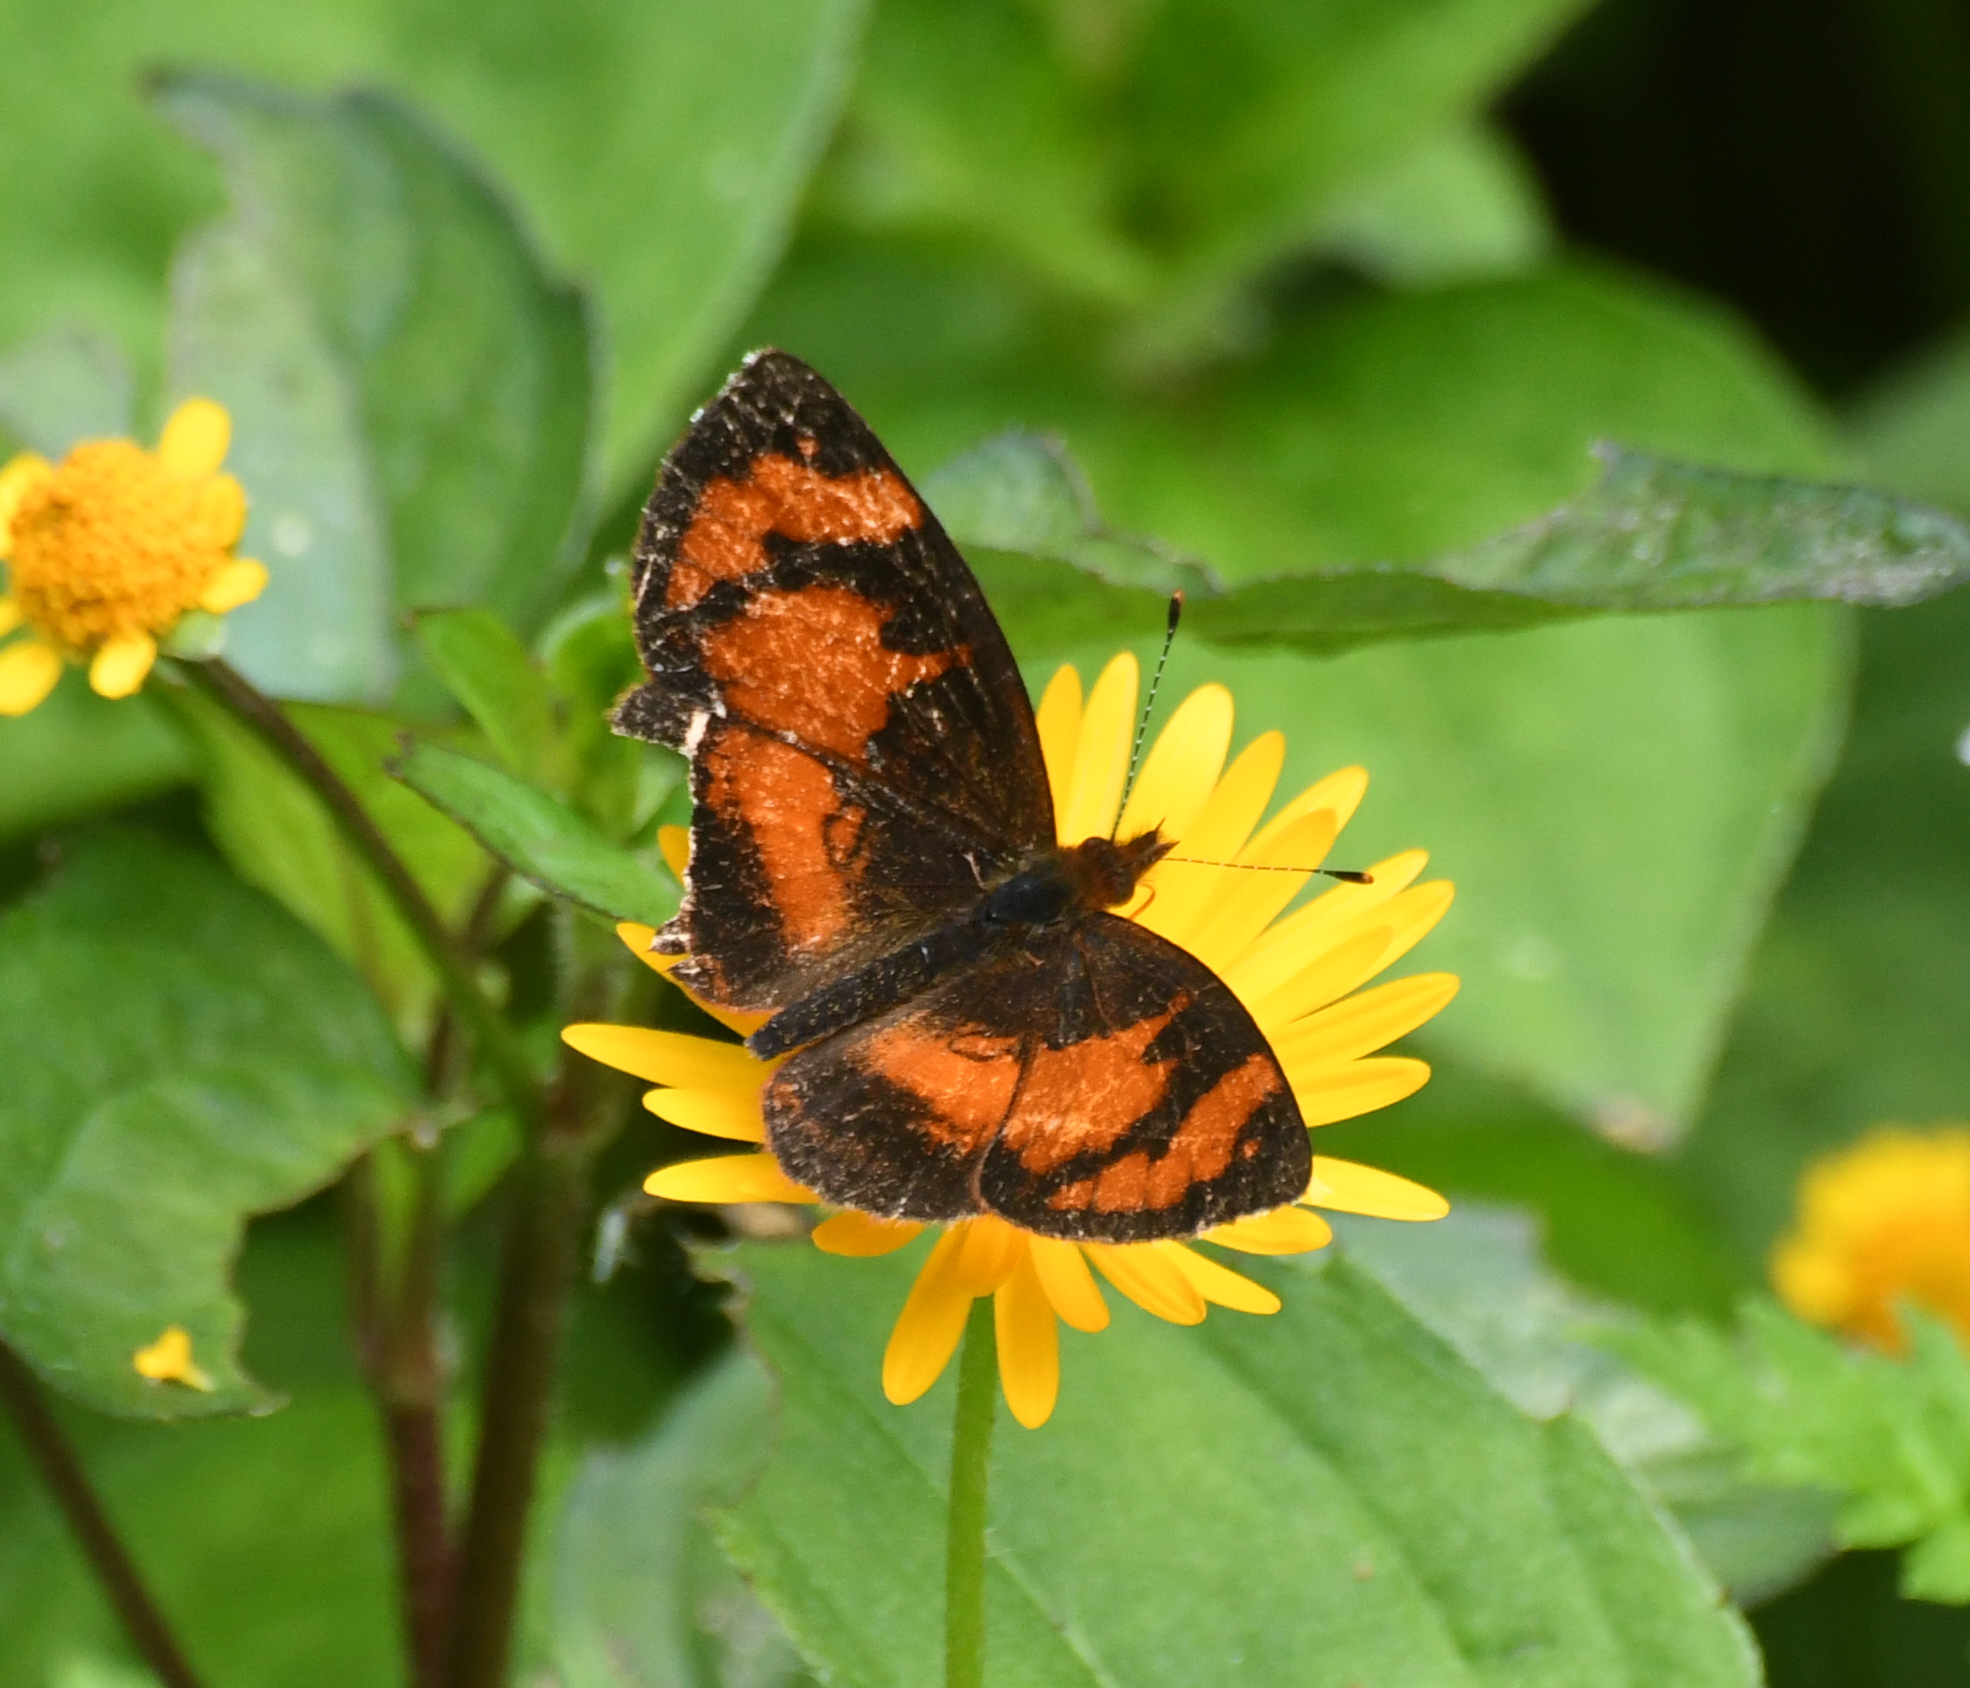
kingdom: Animalia
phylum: Arthropoda
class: Insecta
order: Lepidoptera
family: Nymphalidae
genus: Tegosa
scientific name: Tegosa selene
